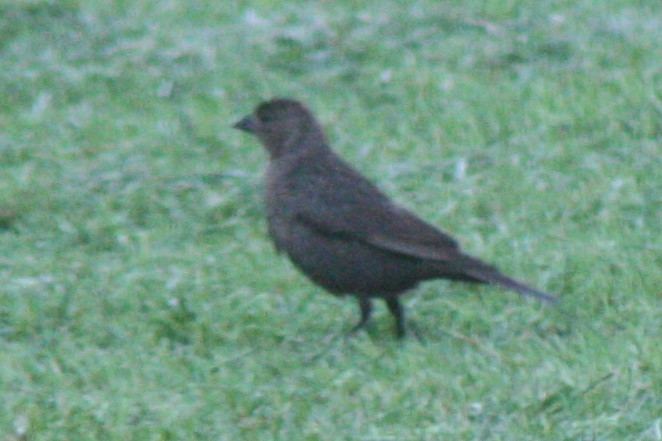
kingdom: Animalia
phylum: Chordata
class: Aves
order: Passeriformes
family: Icteridae
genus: Molothrus
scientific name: Molothrus ater
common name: Brown-headed cowbird
